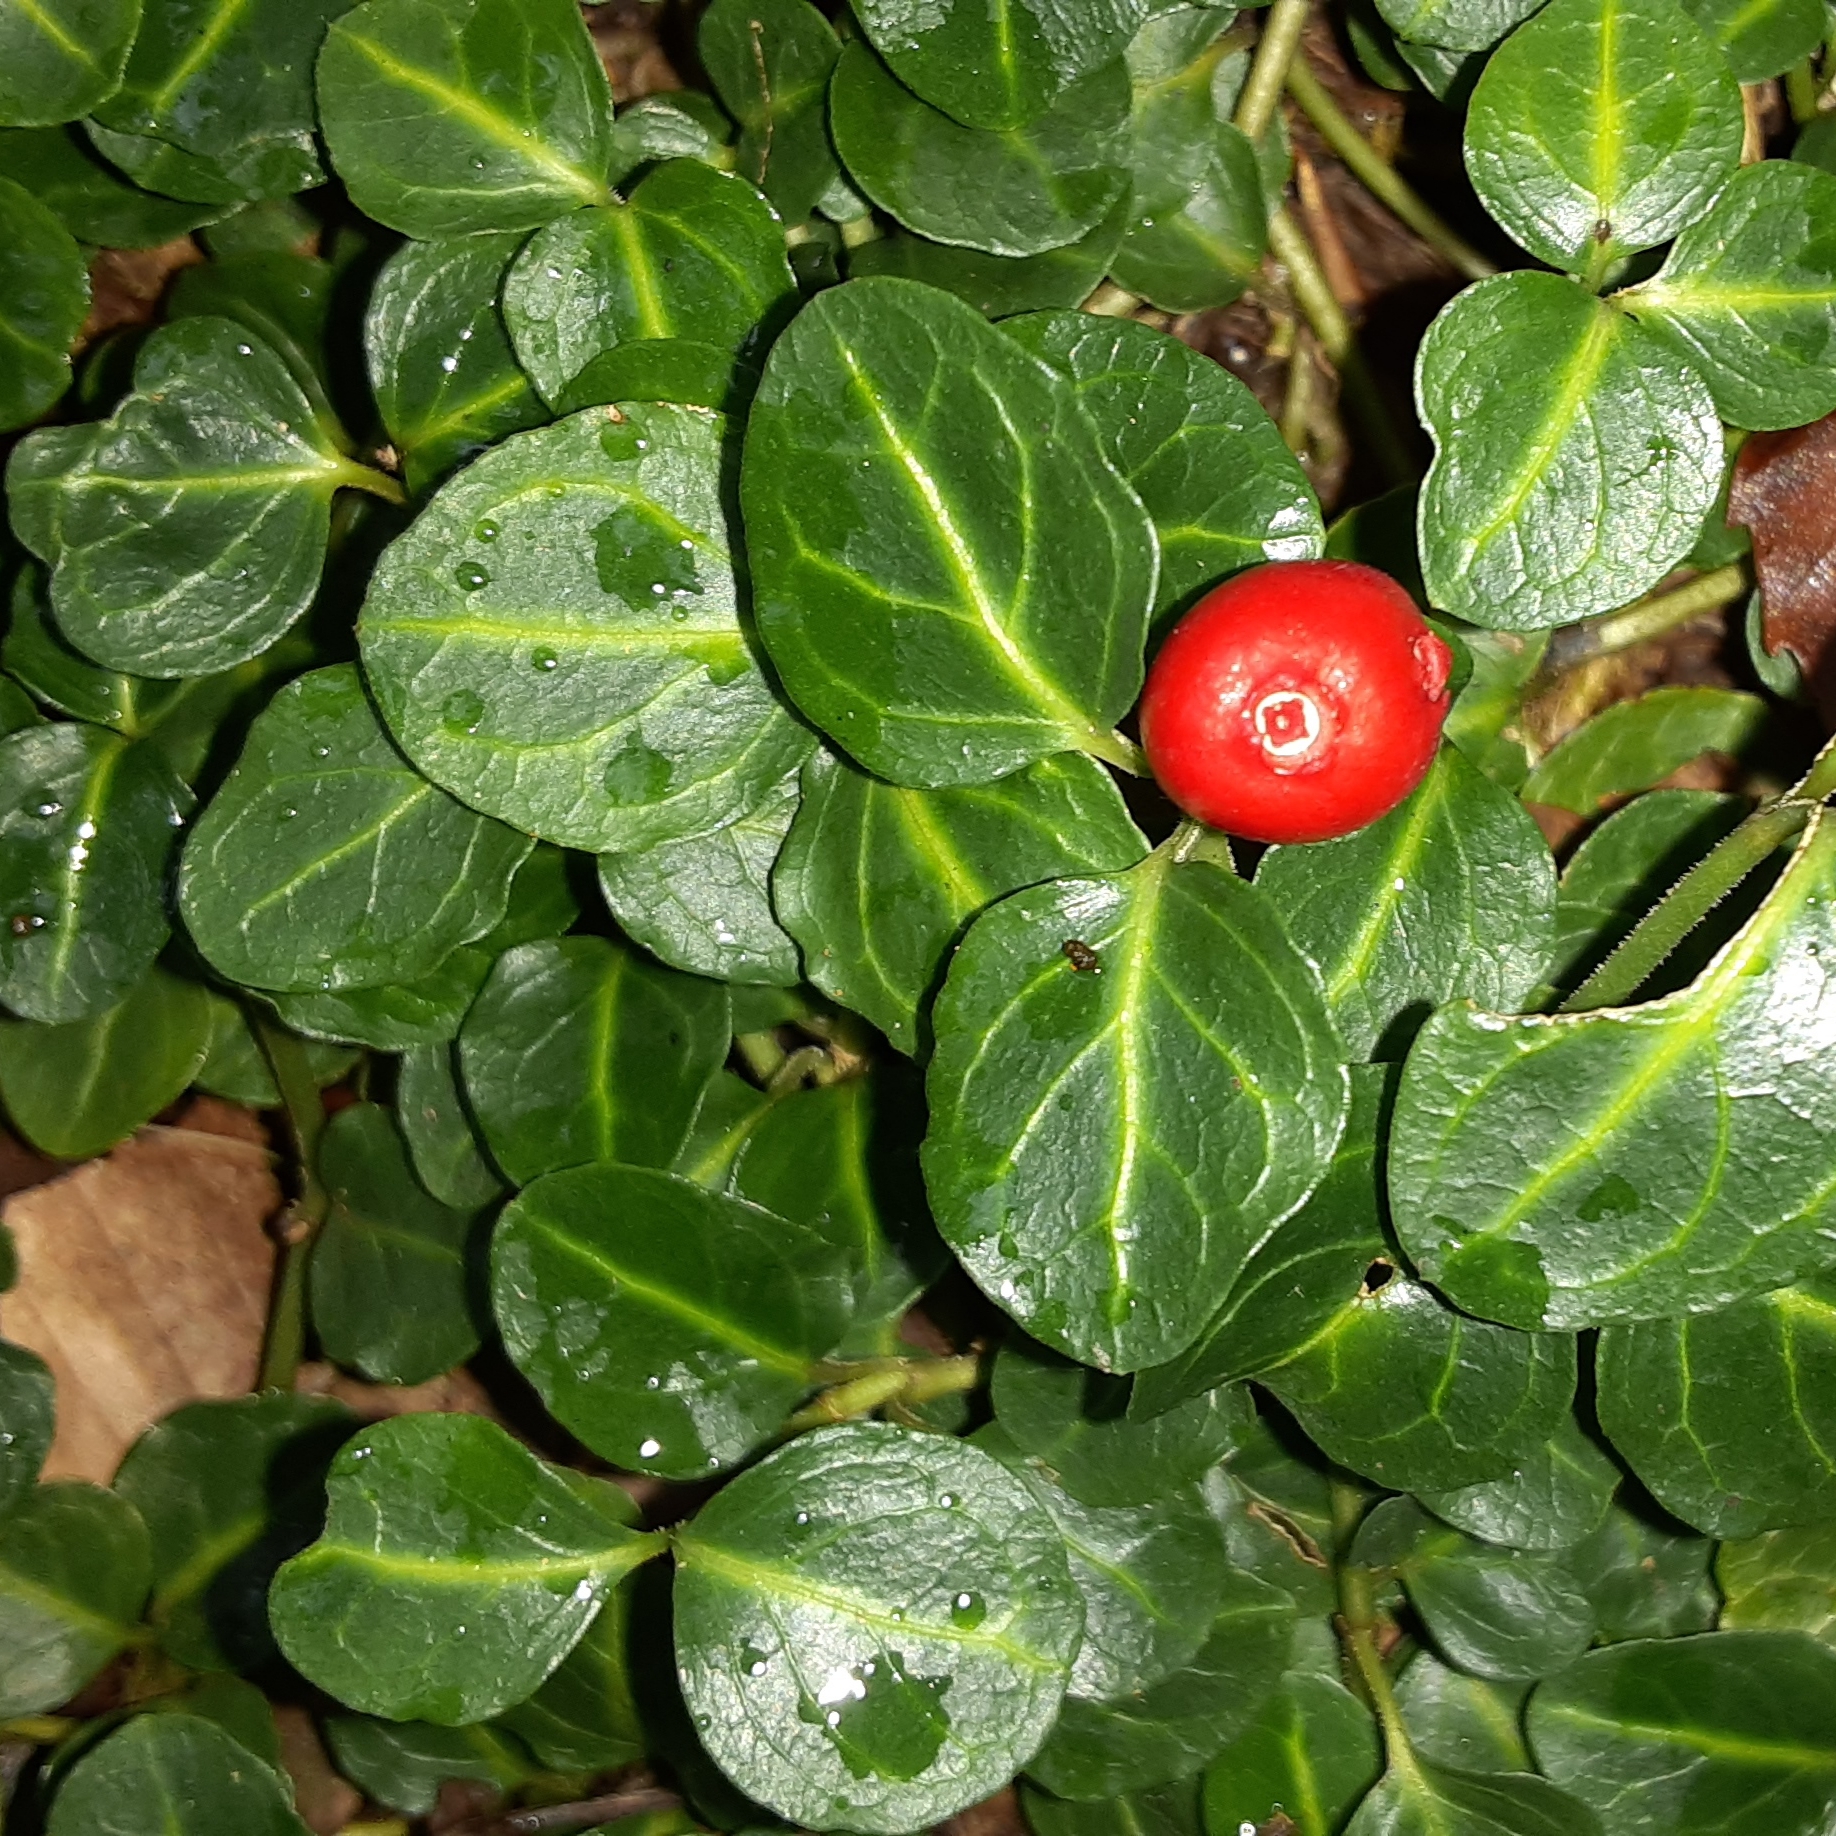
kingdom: Plantae
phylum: Tracheophyta
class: Magnoliopsida
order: Gentianales
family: Rubiaceae
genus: Mitchella
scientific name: Mitchella repens
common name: Partridge-berry
